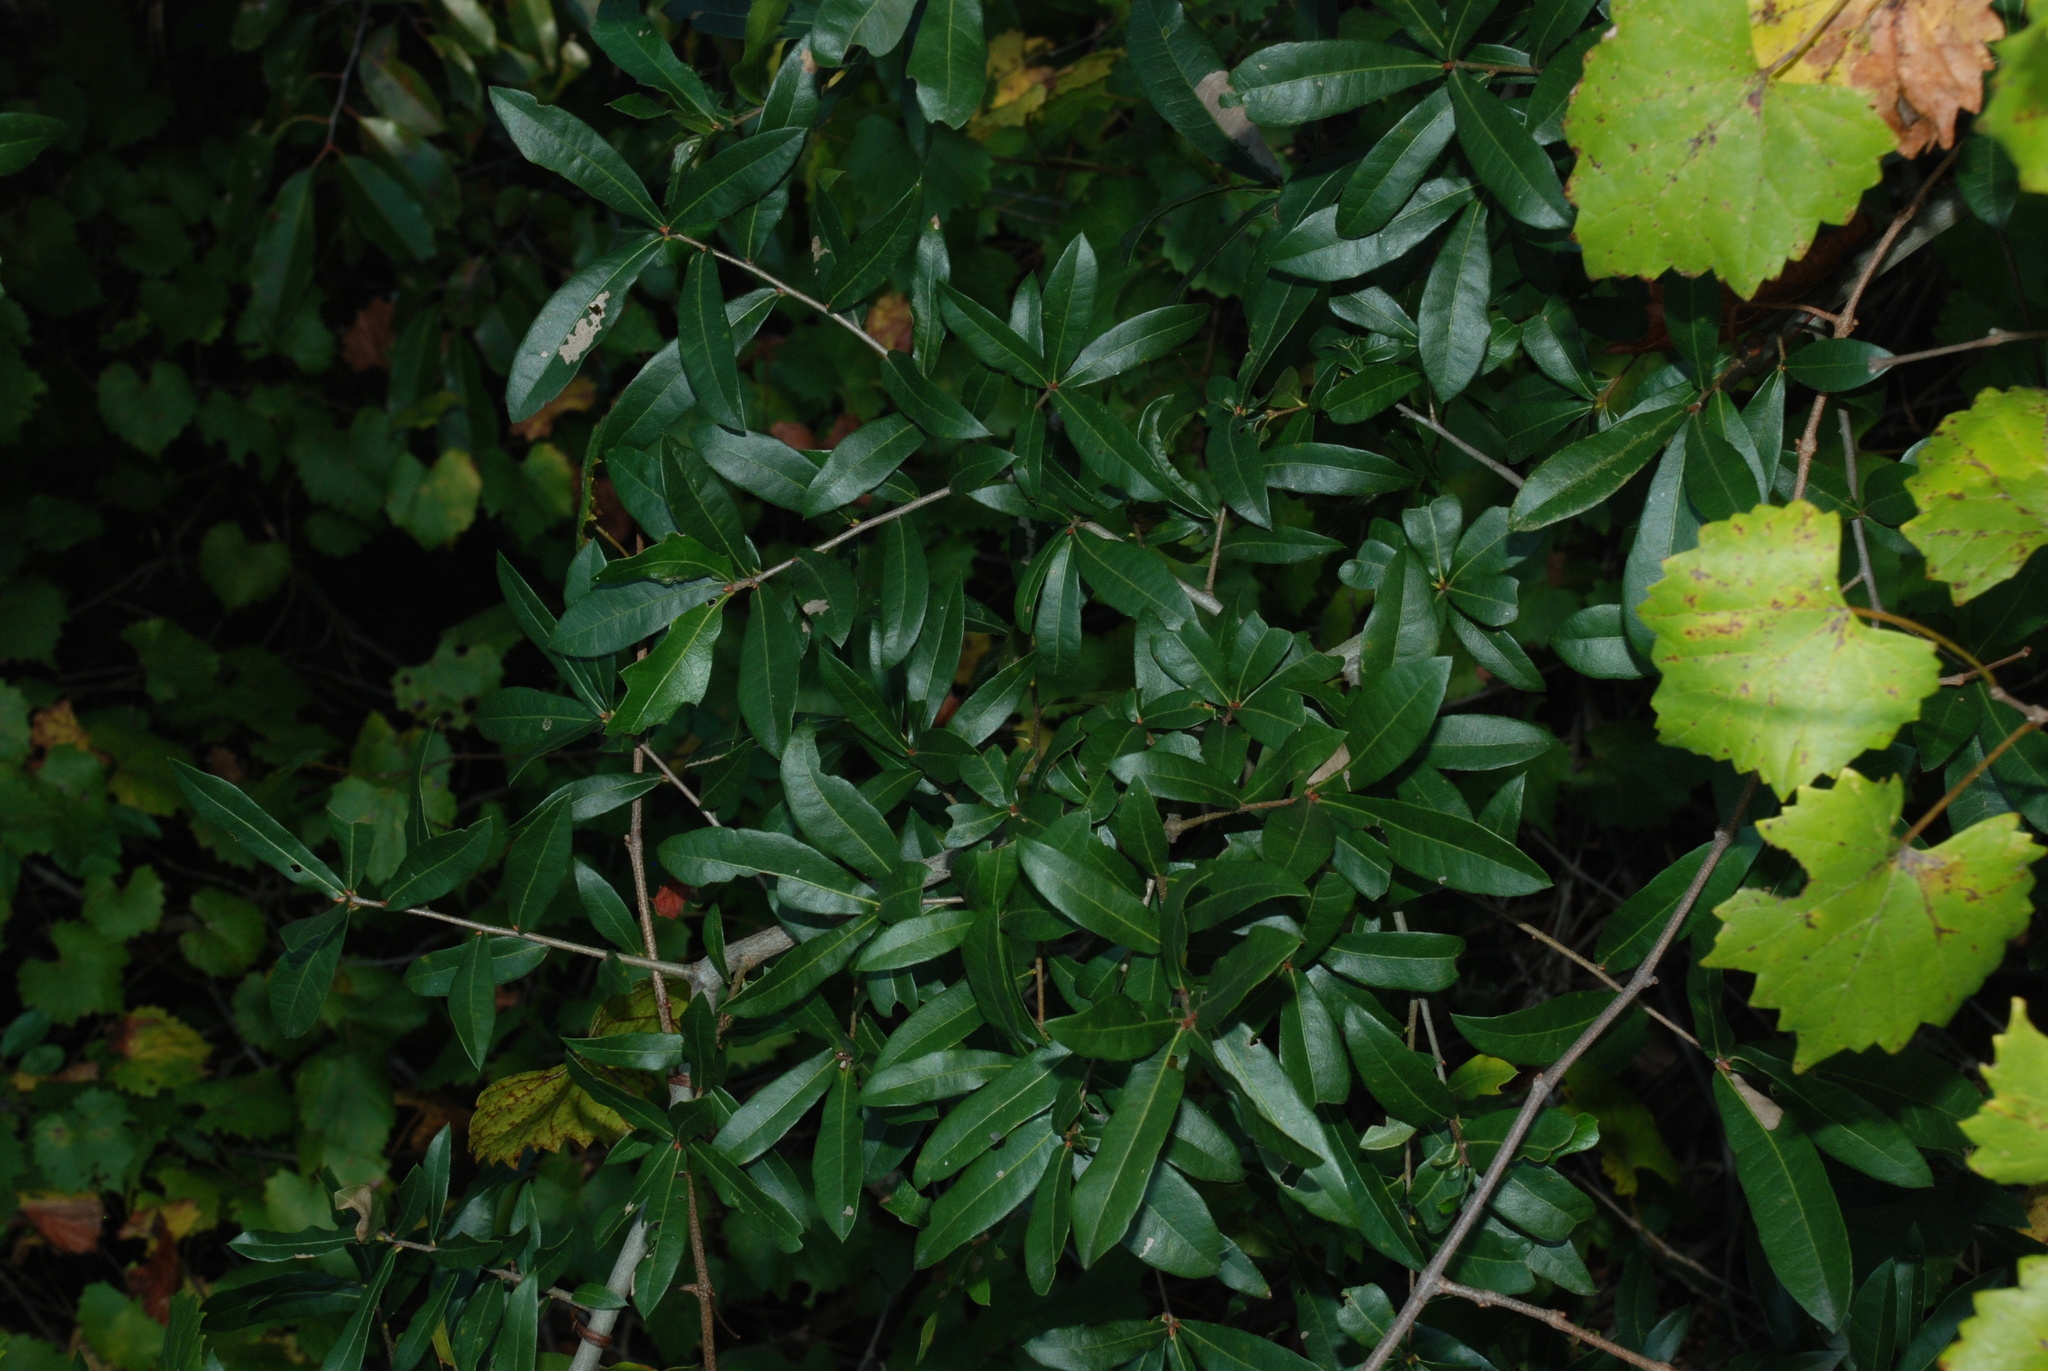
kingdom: Plantae
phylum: Tracheophyta
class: Magnoliopsida
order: Fagales
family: Fagaceae
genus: Quercus
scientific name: Quercus hemisphaerica
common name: Darlington oak
